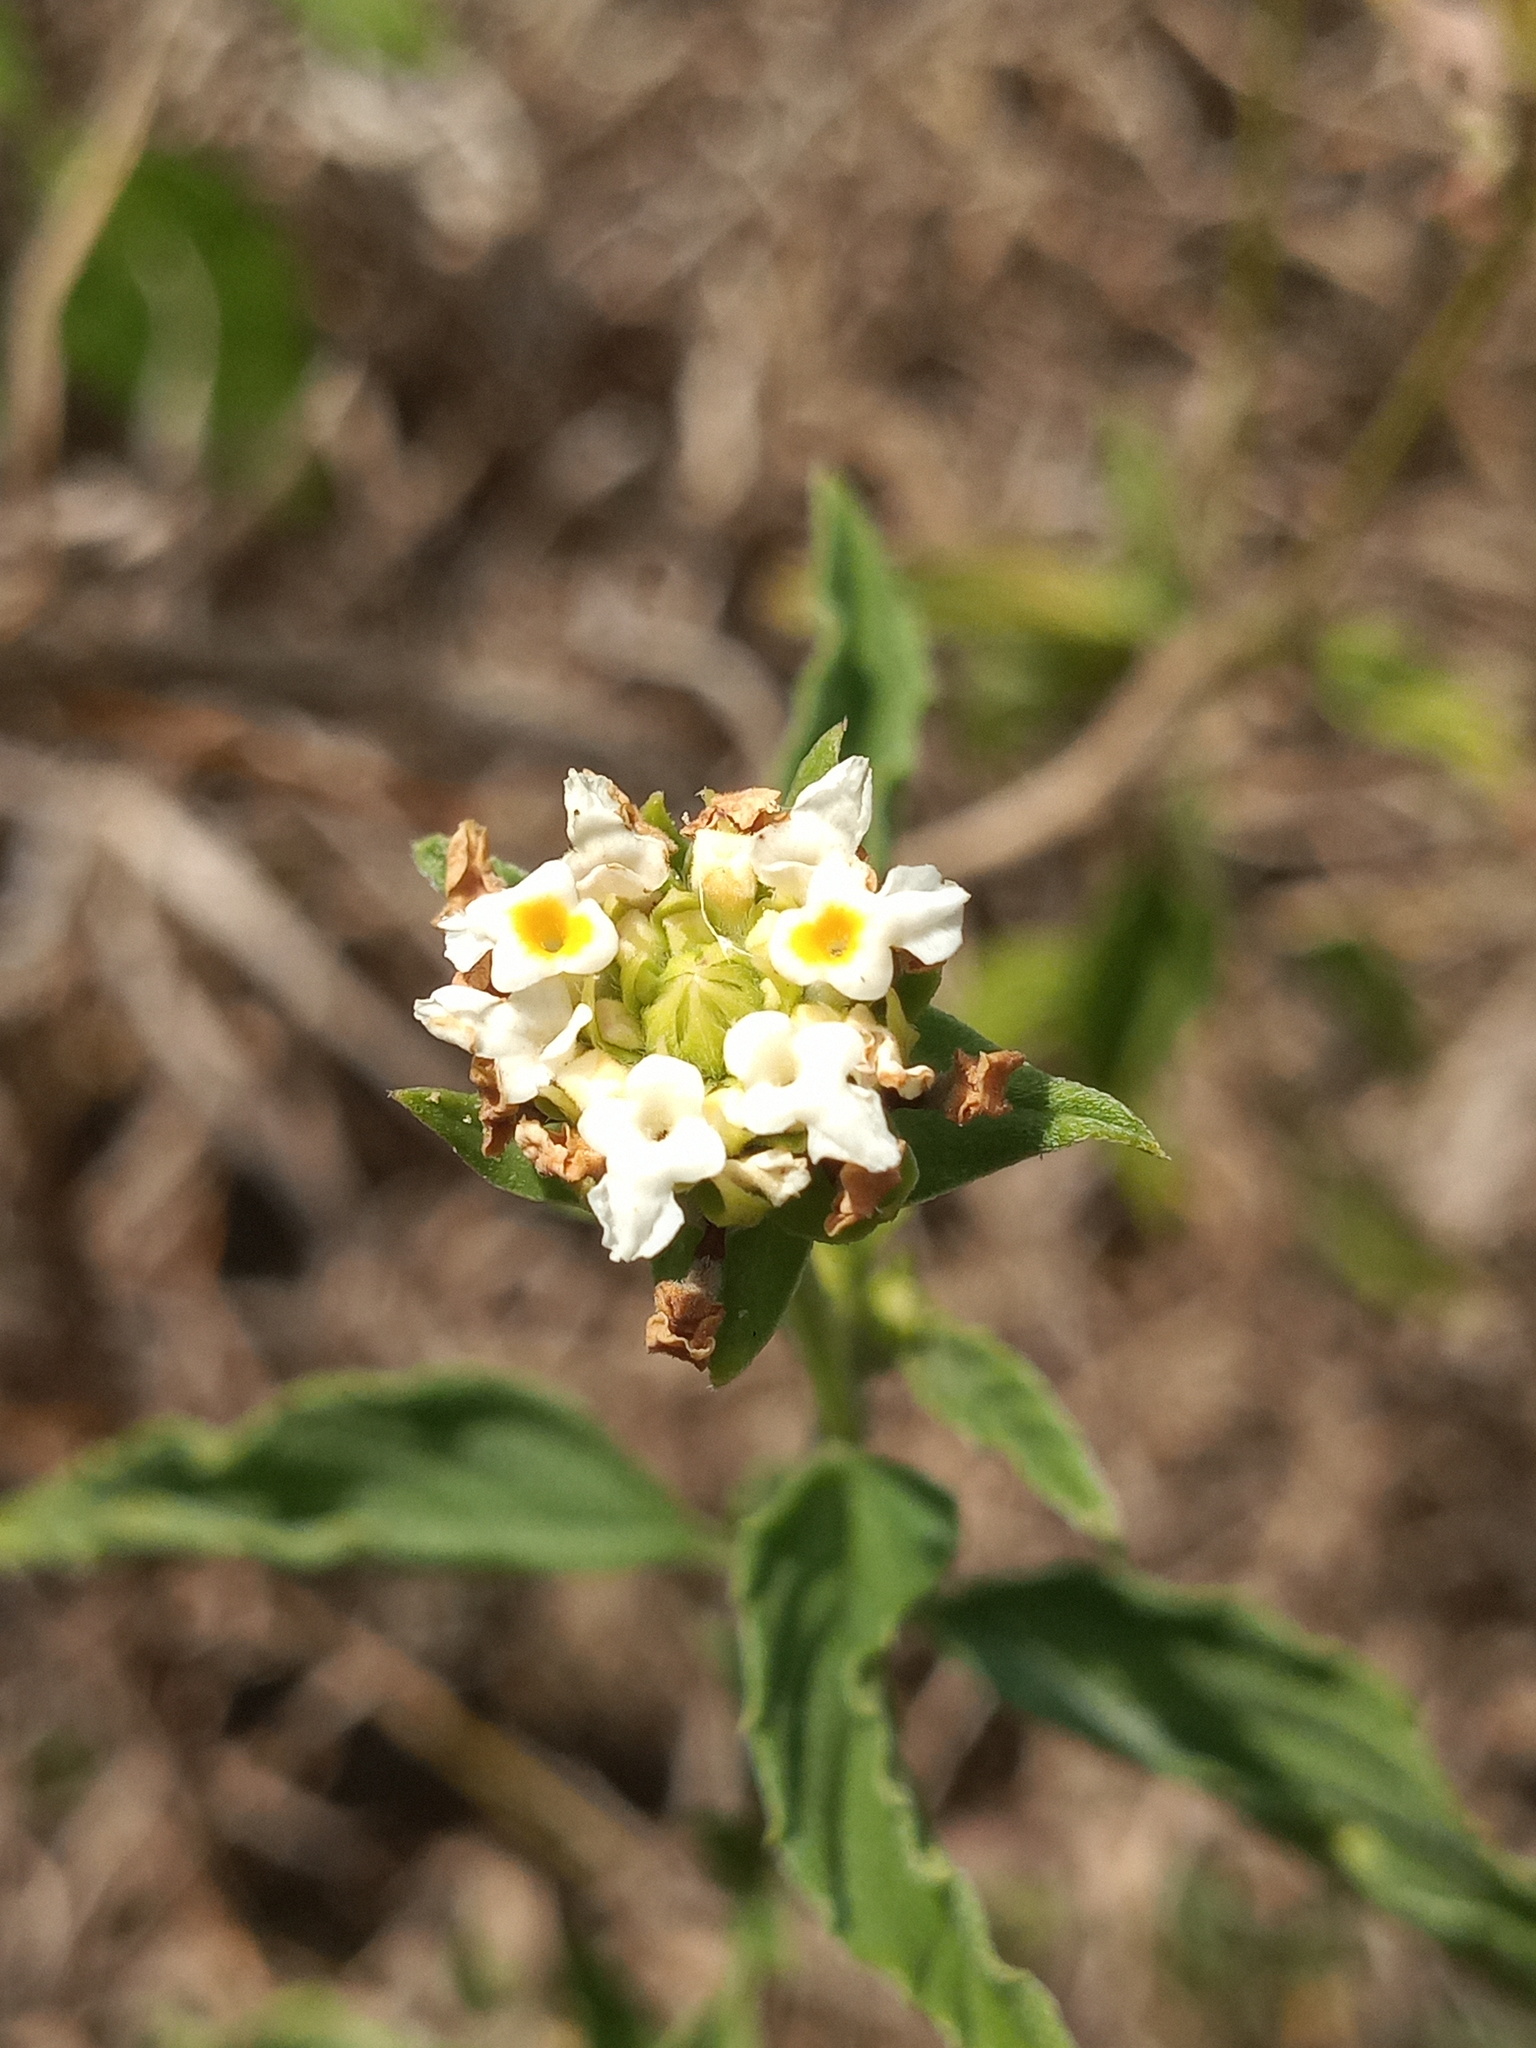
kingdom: Plantae
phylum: Tracheophyta
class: Magnoliopsida
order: Lamiales
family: Verbenaceae
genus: Lantana
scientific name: Lantana canescens
